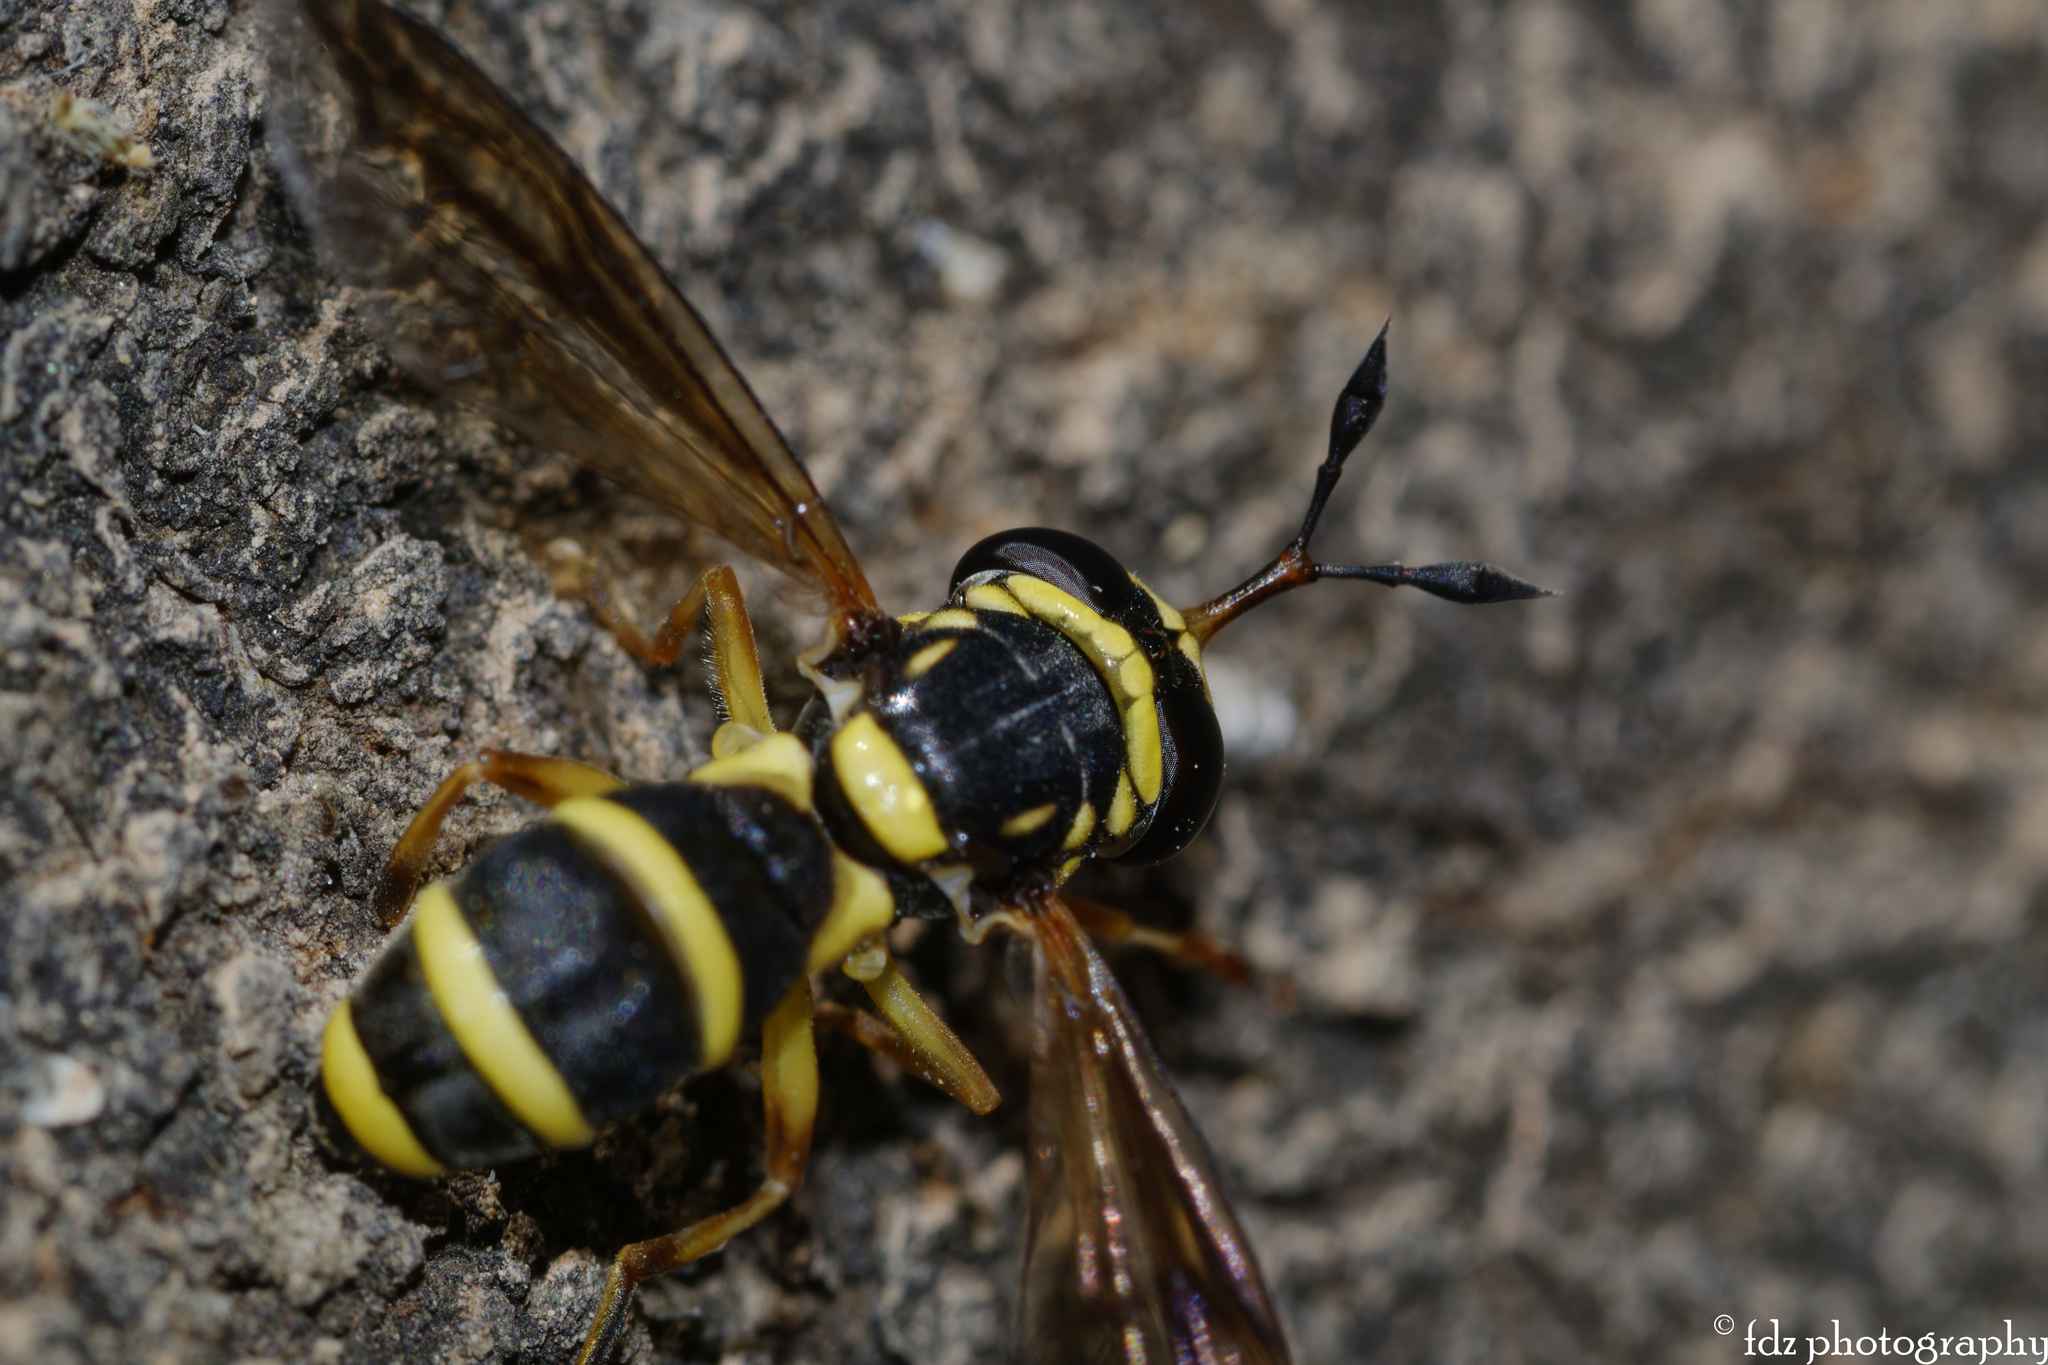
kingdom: Animalia
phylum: Arthropoda
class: Insecta
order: Diptera
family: Syrphidae
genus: Ceriana
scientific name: Ceriana vespiformis
